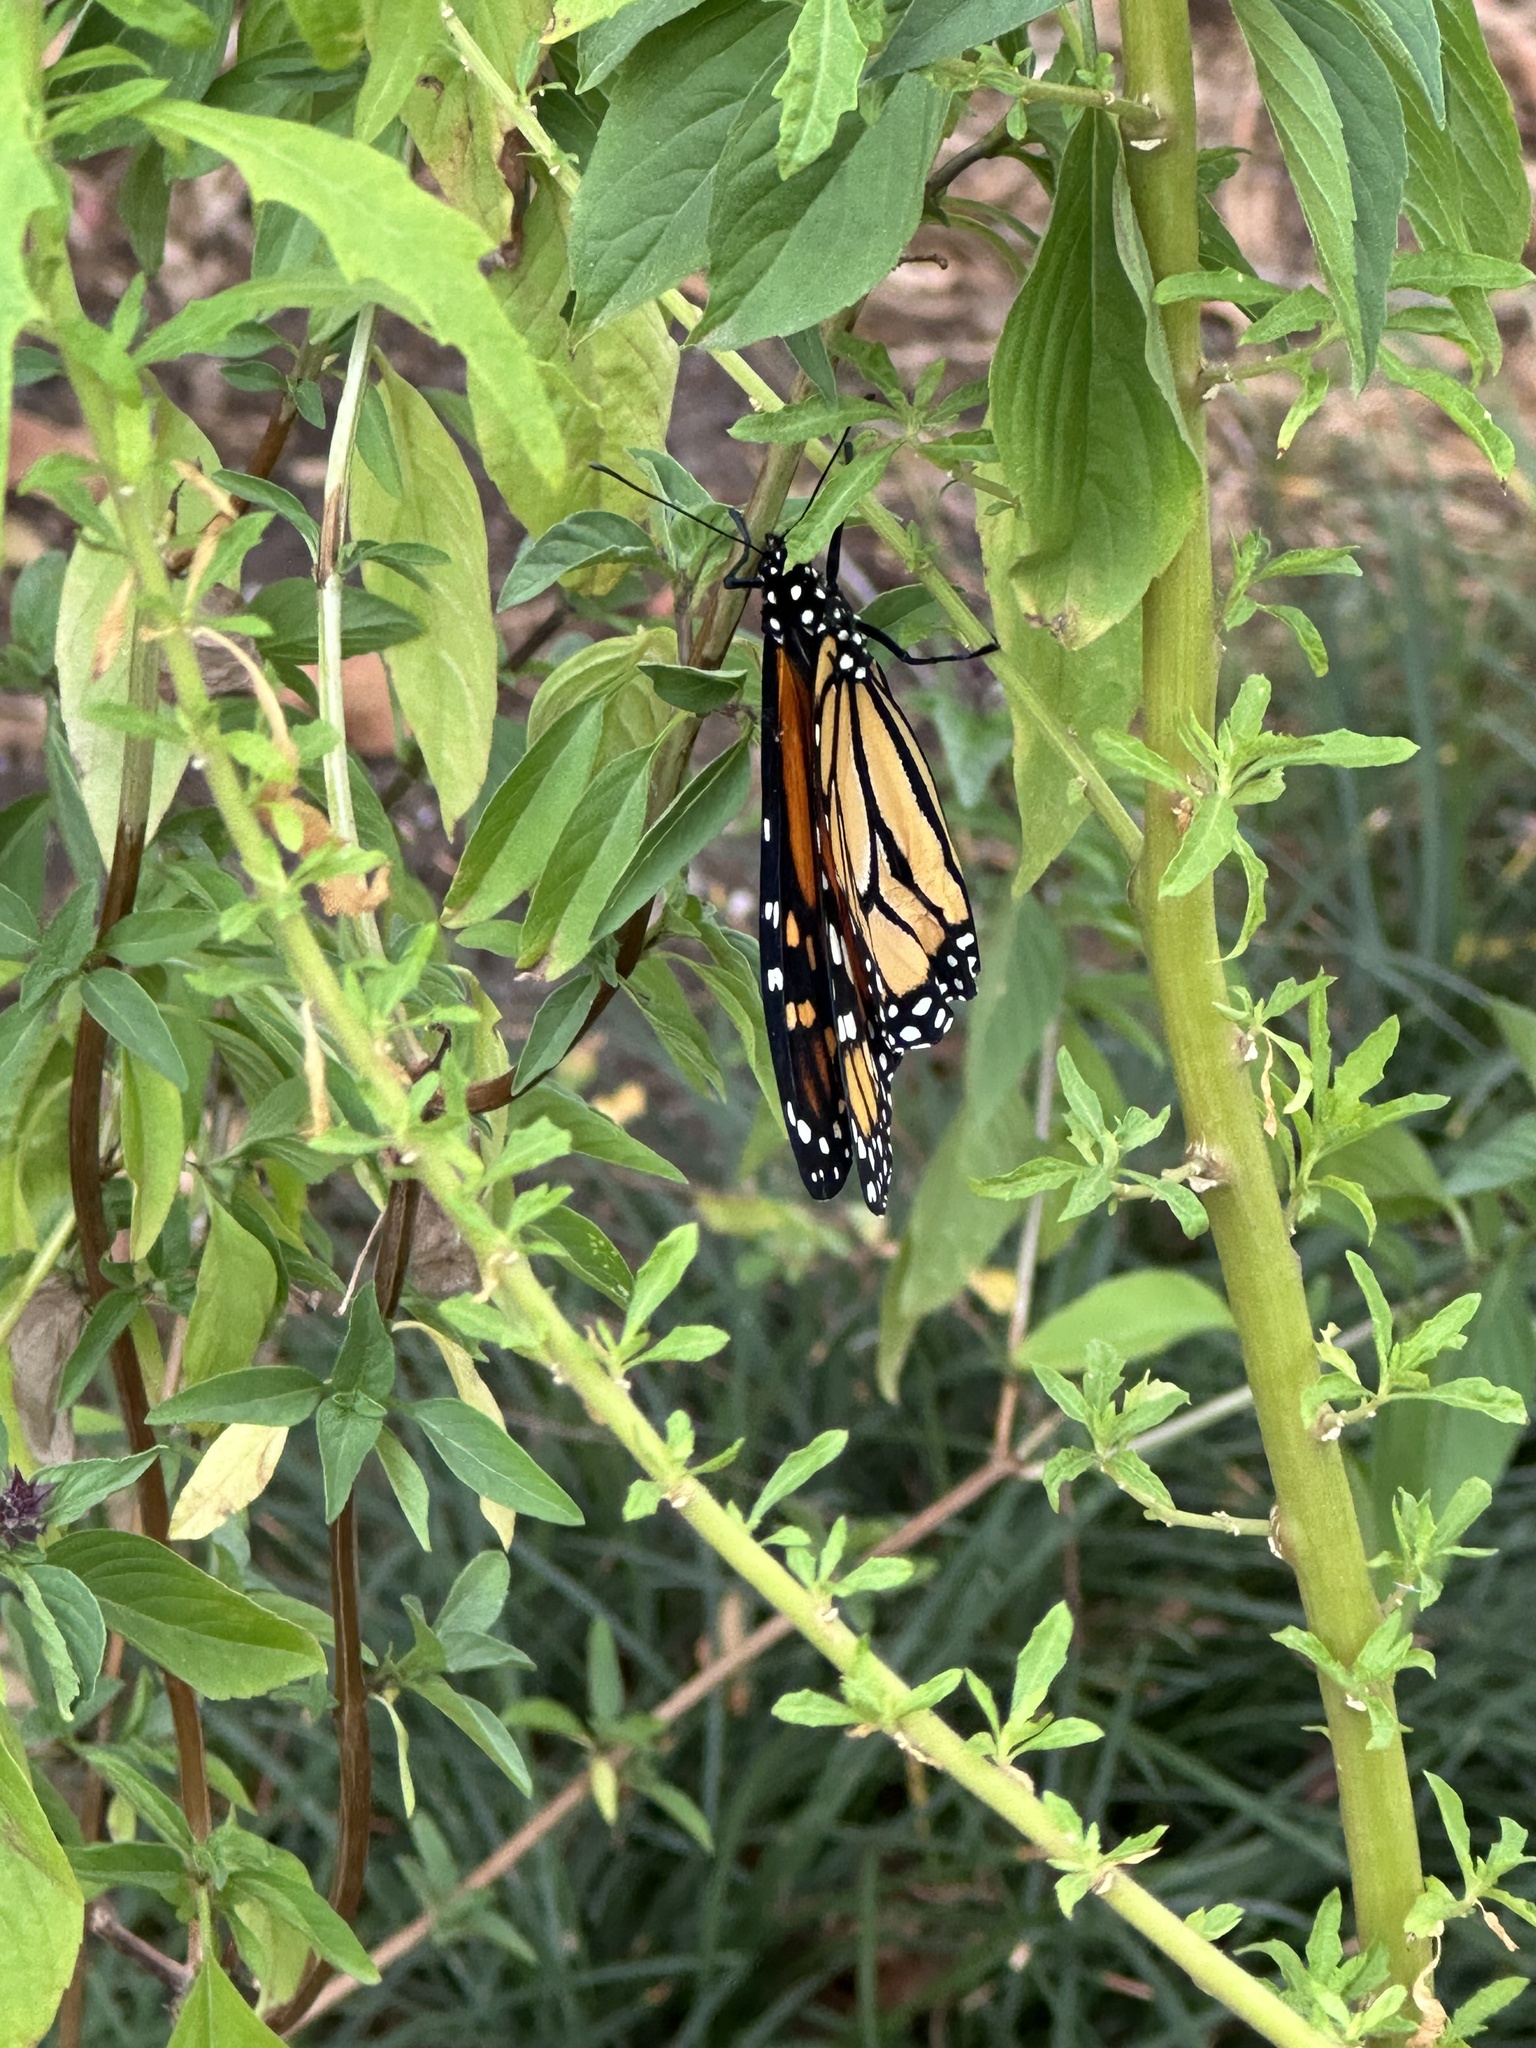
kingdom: Animalia
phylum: Arthropoda
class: Insecta
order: Lepidoptera
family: Nymphalidae
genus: Danaus
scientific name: Danaus plexippus
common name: Monarch
